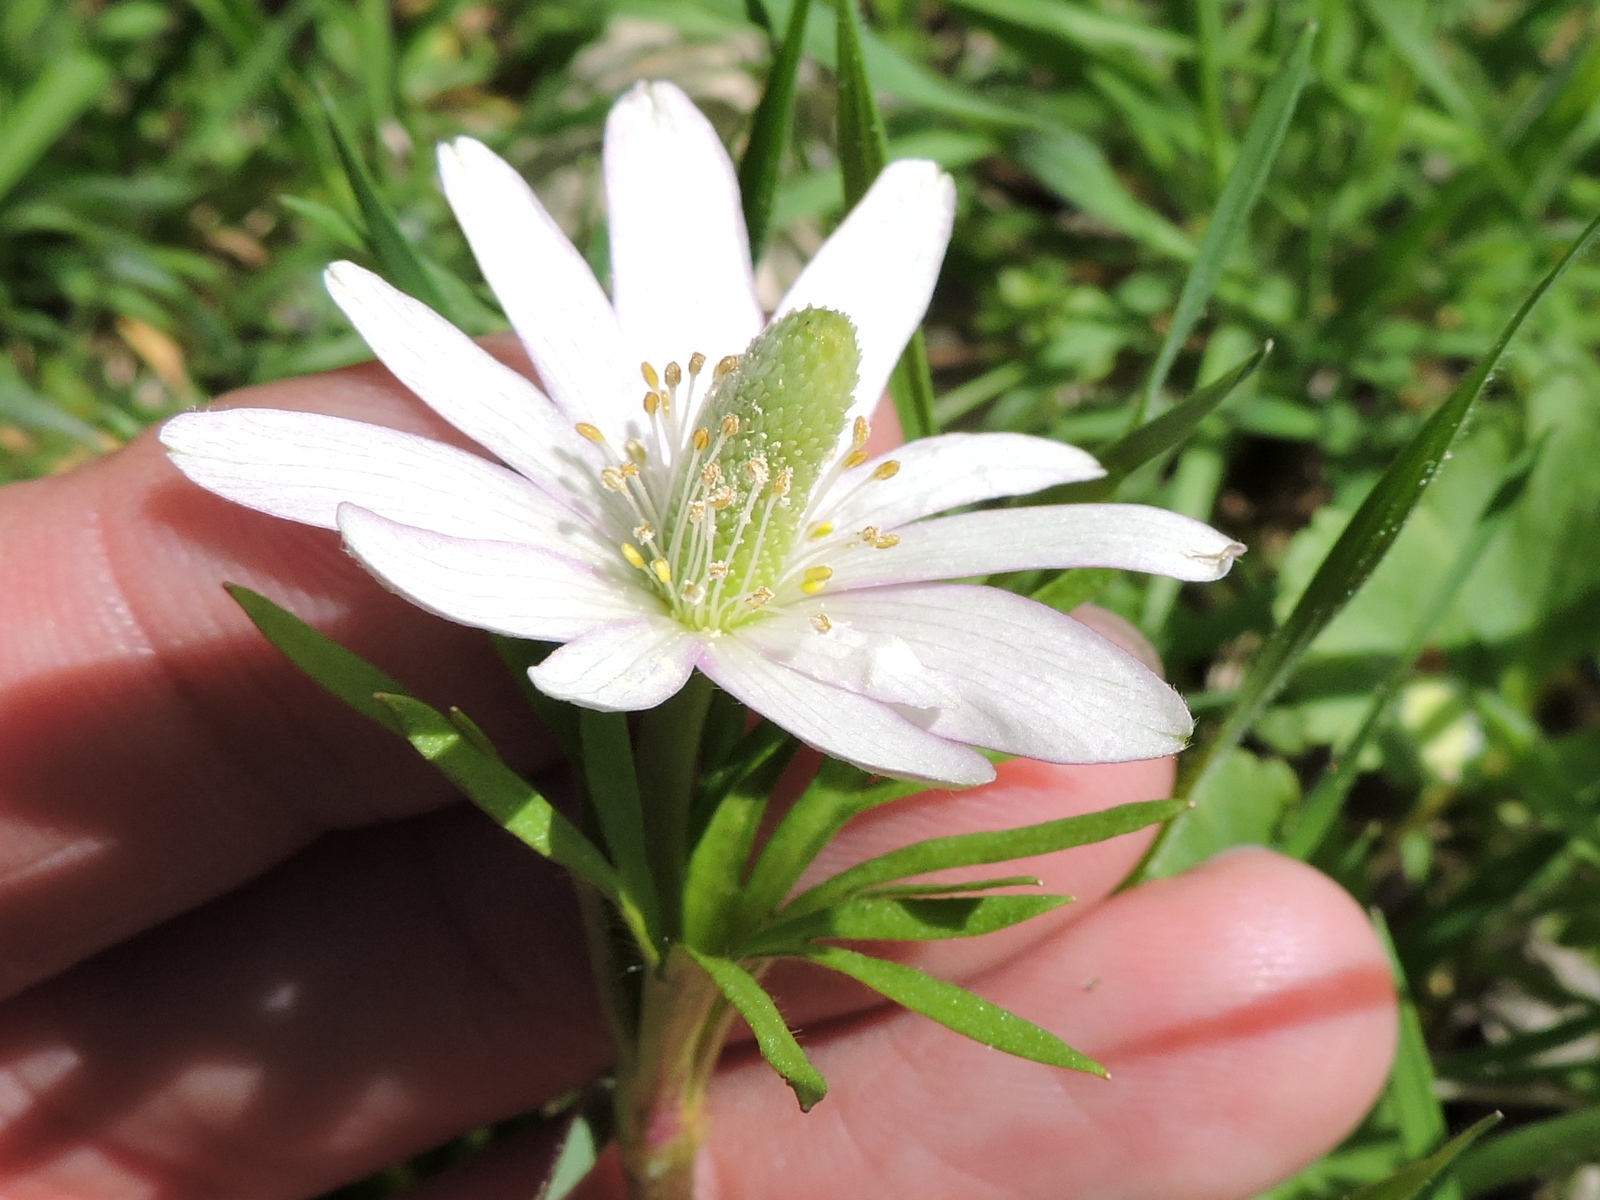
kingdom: Plantae
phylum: Tracheophyta
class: Magnoliopsida
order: Ranunculales
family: Ranunculaceae
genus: Anemone
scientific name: Anemone berlandieri
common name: Ten-petal anemone
